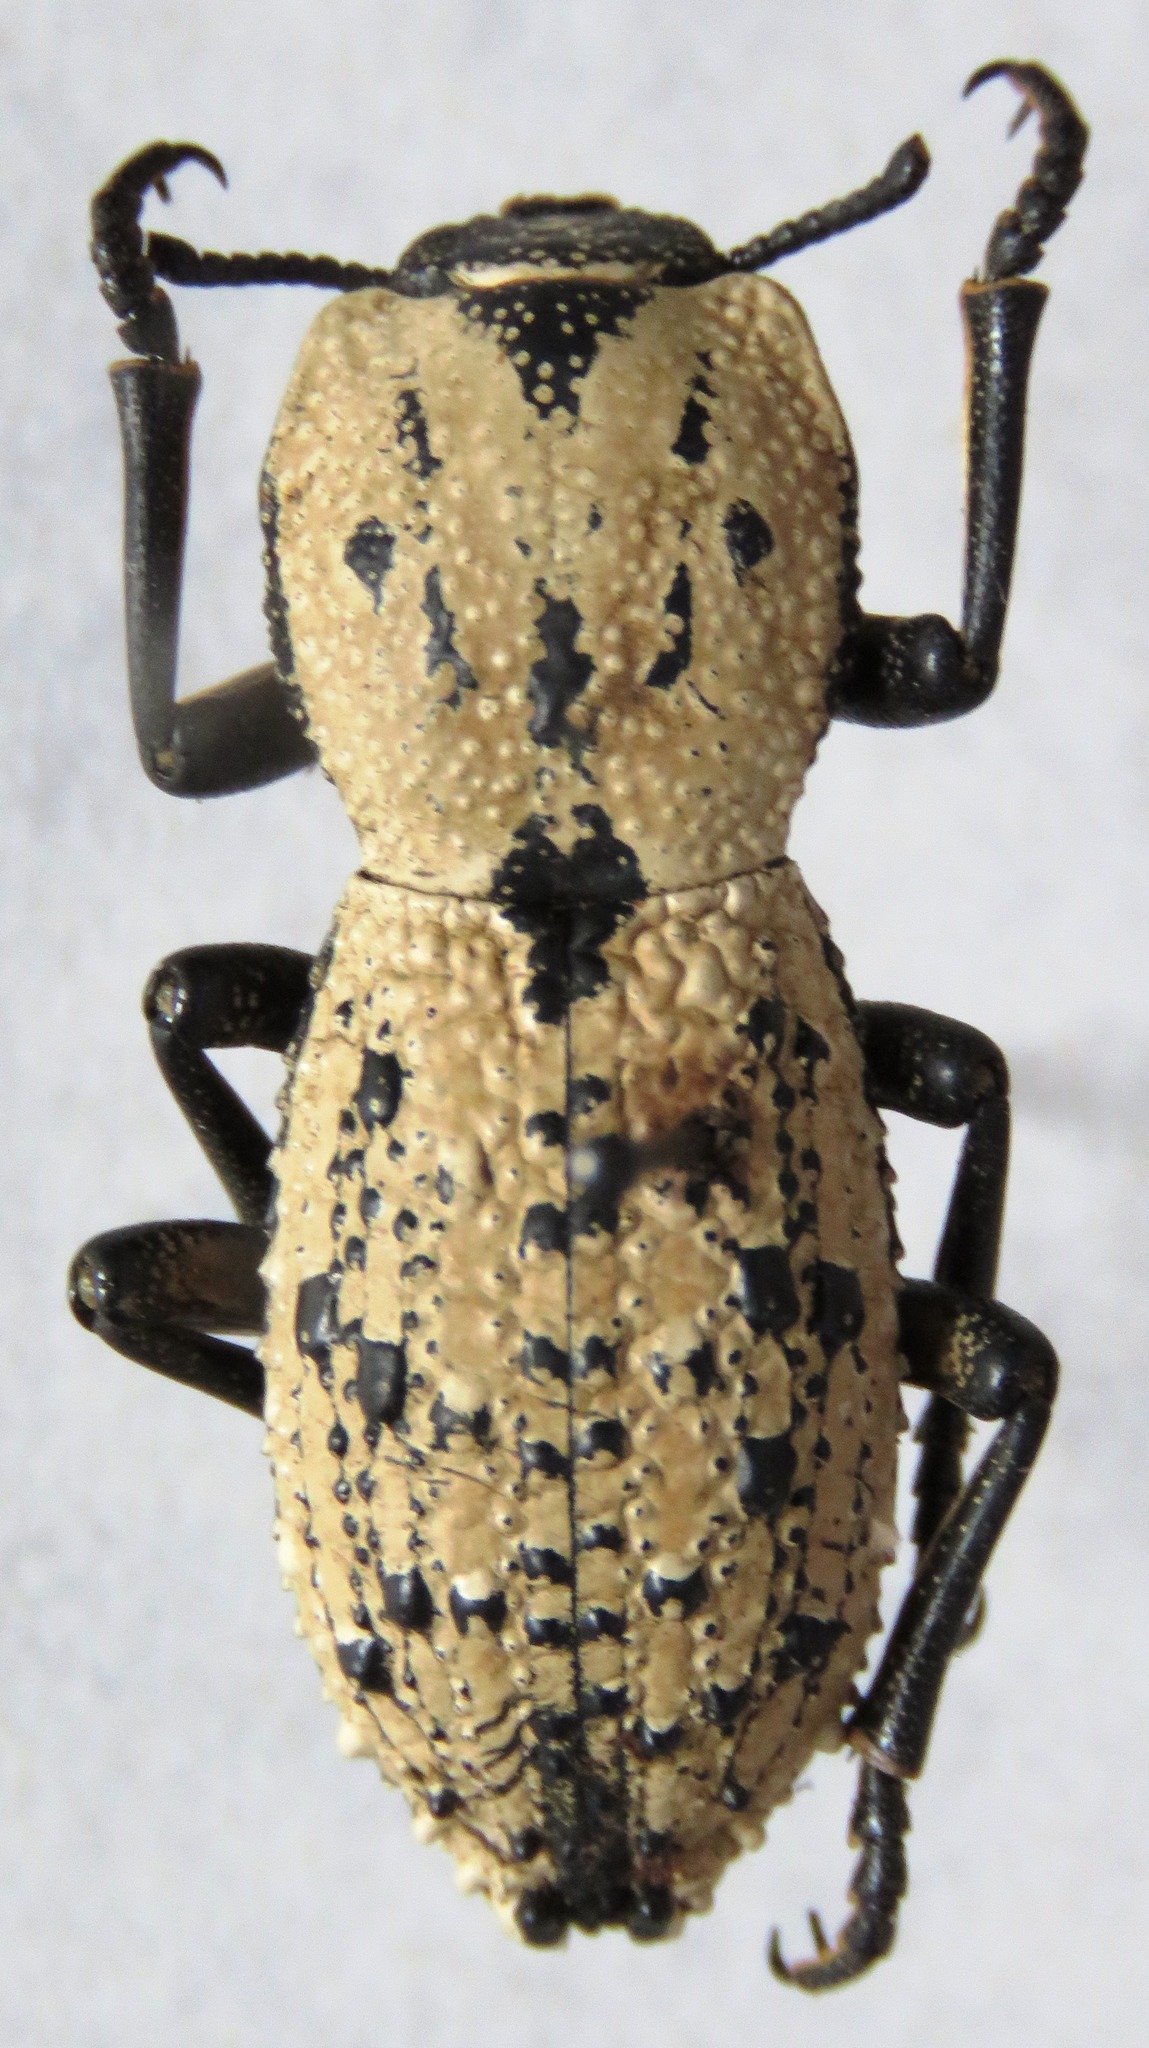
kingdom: Animalia
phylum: Arthropoda
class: Insecta
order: Coleoptera
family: Zopheridae
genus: Zopherus
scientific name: Zopherus
